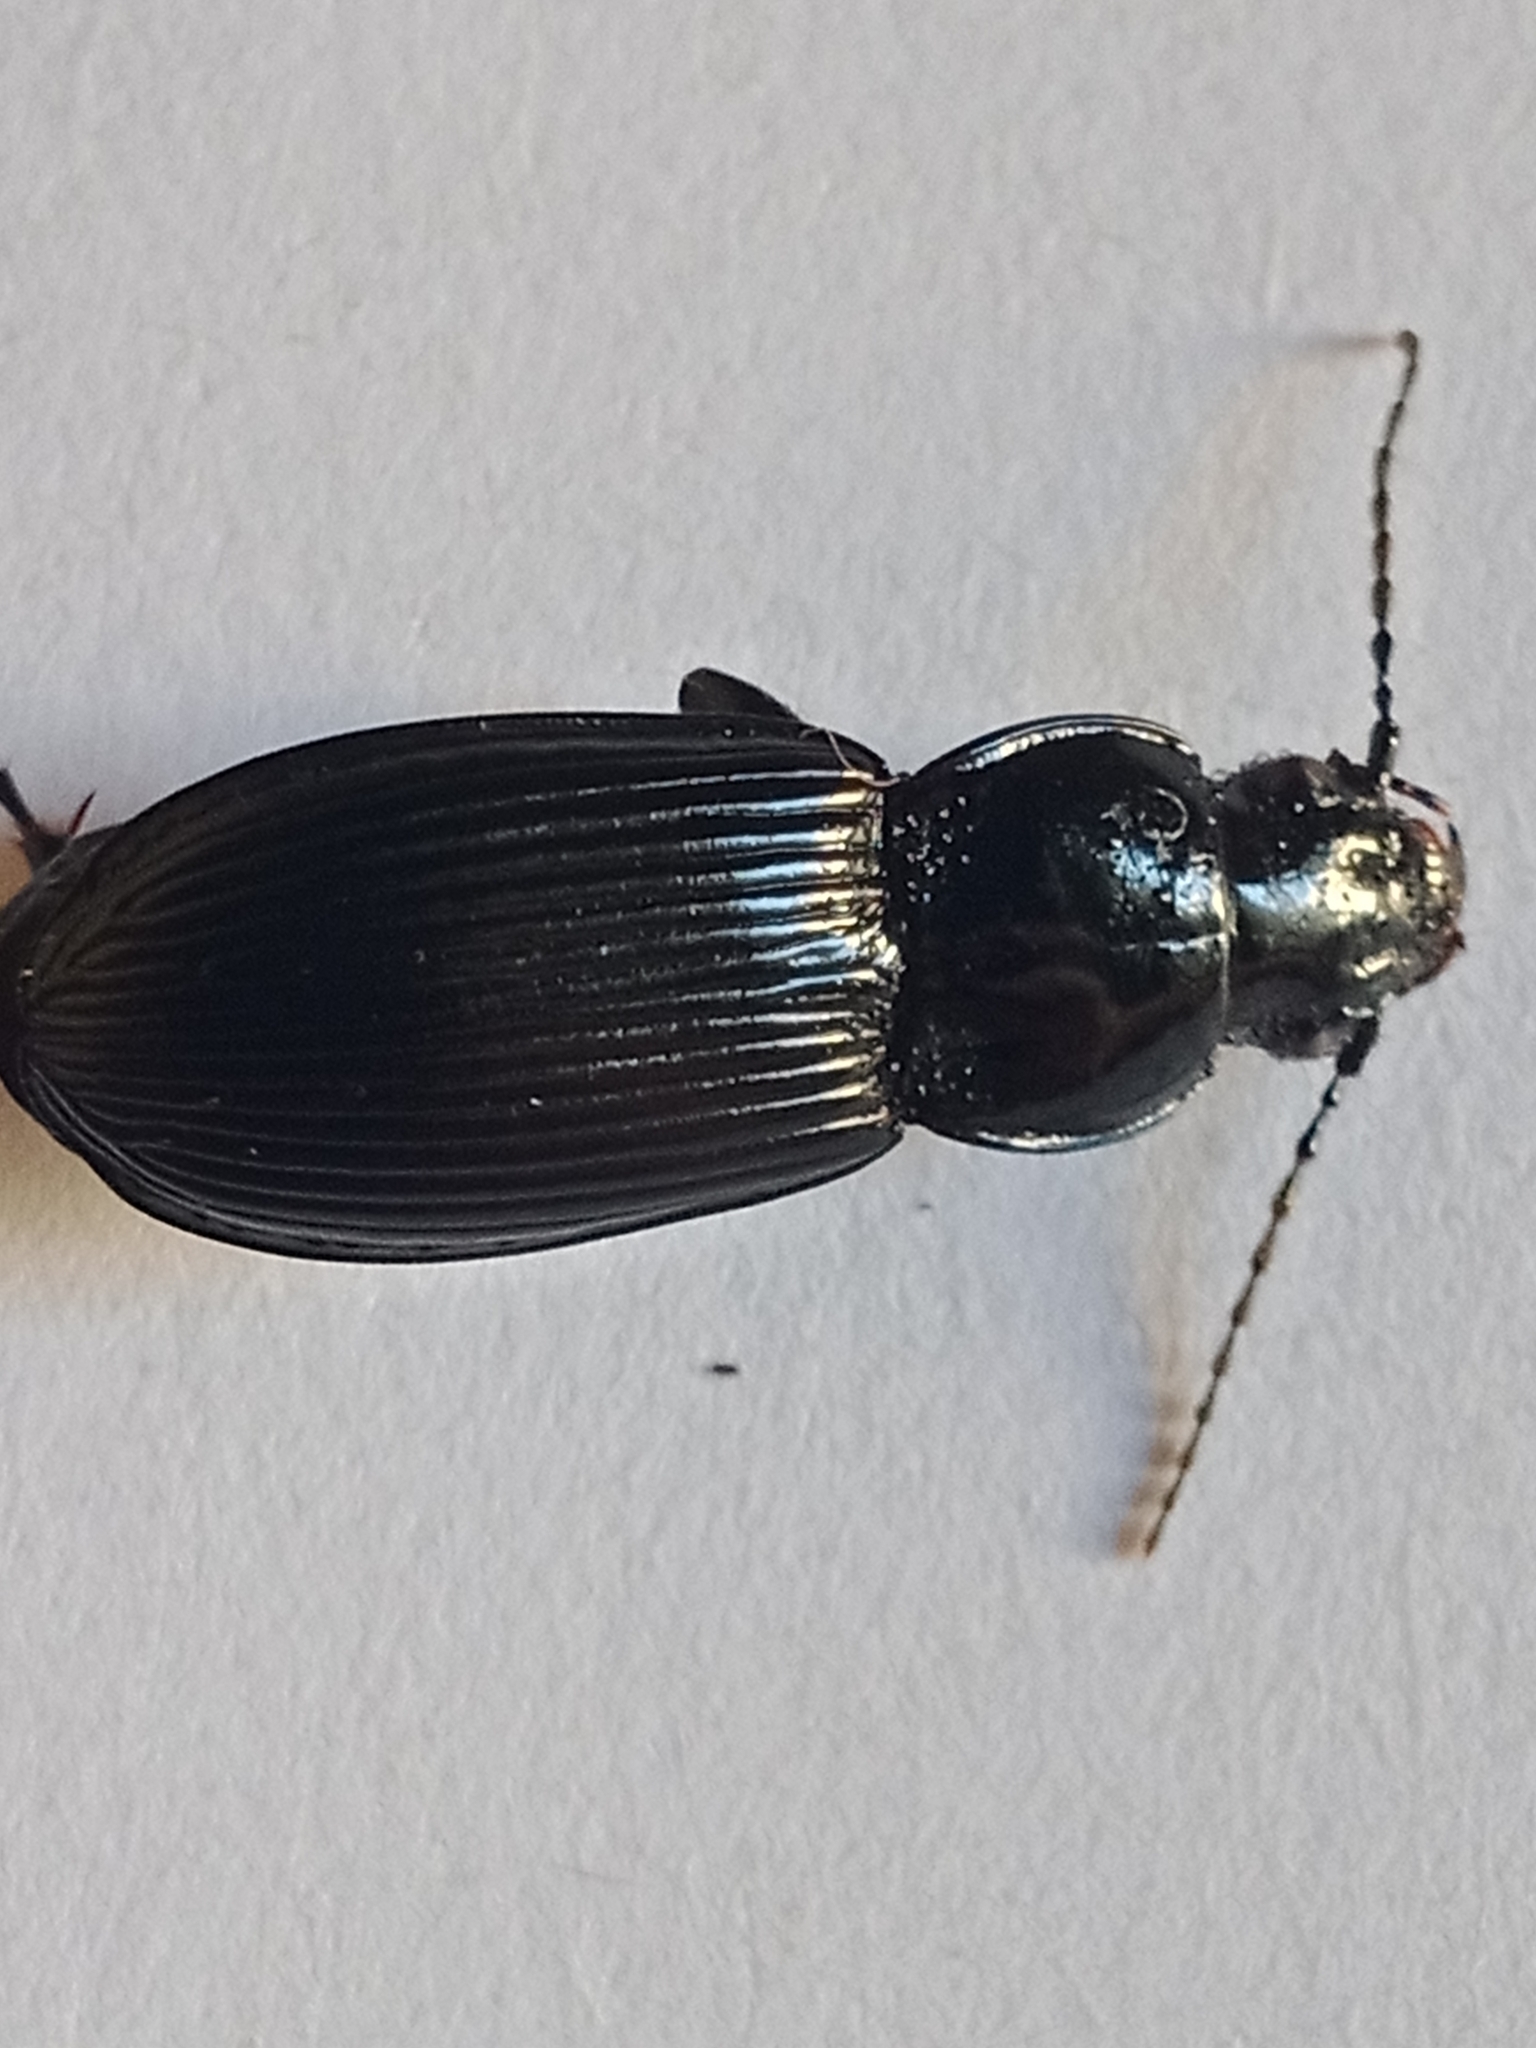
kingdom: Animalia
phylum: Arthropoda
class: Insecta
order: Coleoptera
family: Carabidae
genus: Pterostichus
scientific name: Pterostichus niger
